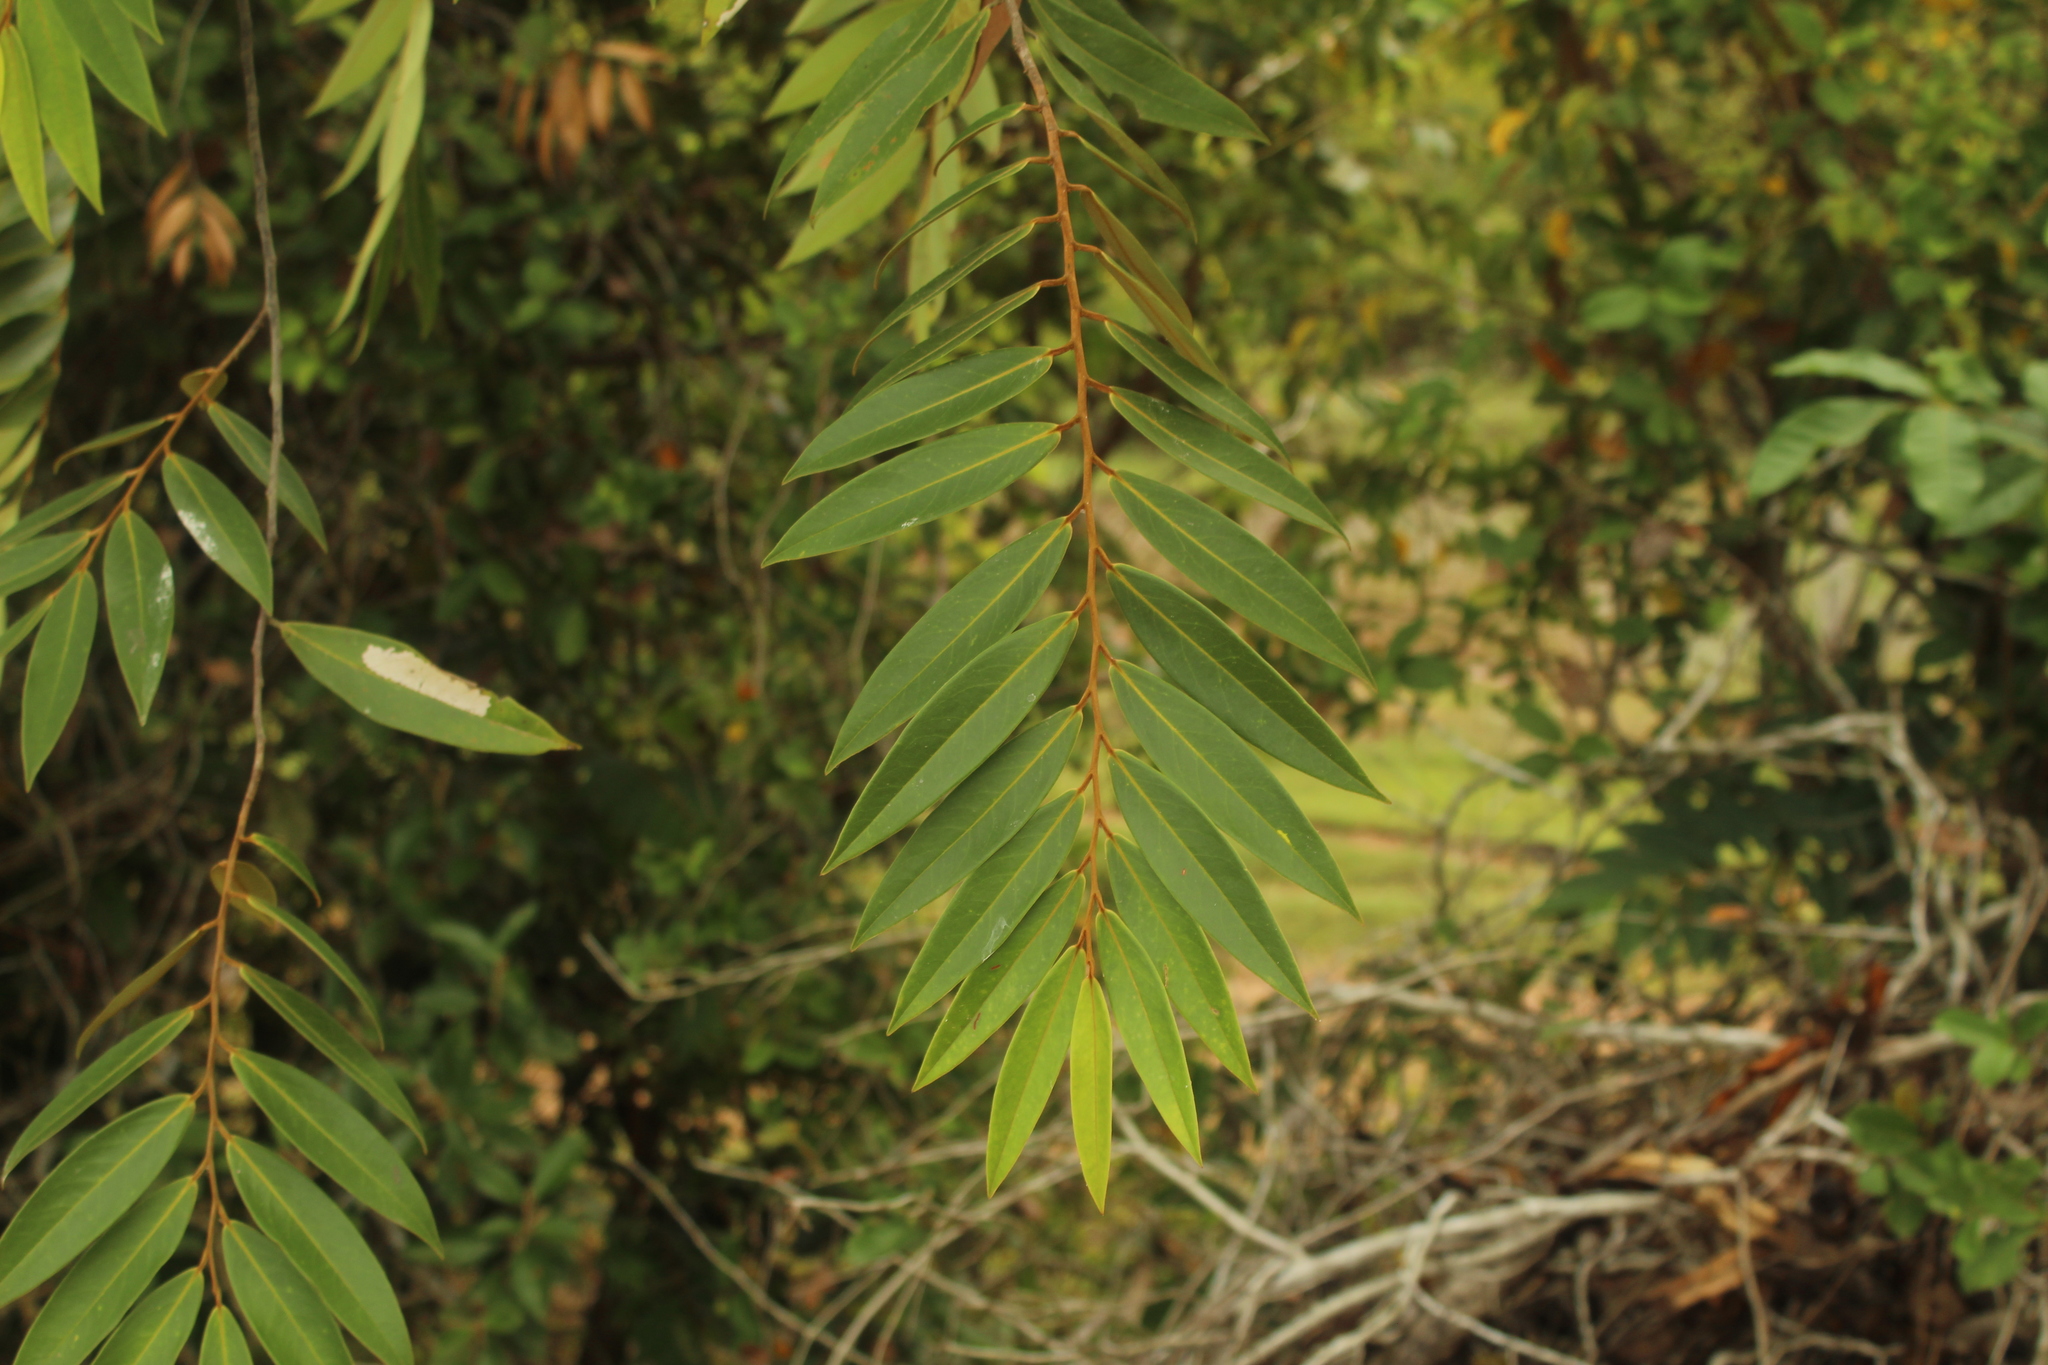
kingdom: Plantae
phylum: Tracheophyta
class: Magnoliopsida
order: Magnoliales
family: Annonaceae
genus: Xylopia
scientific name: Xylopia aromatica
